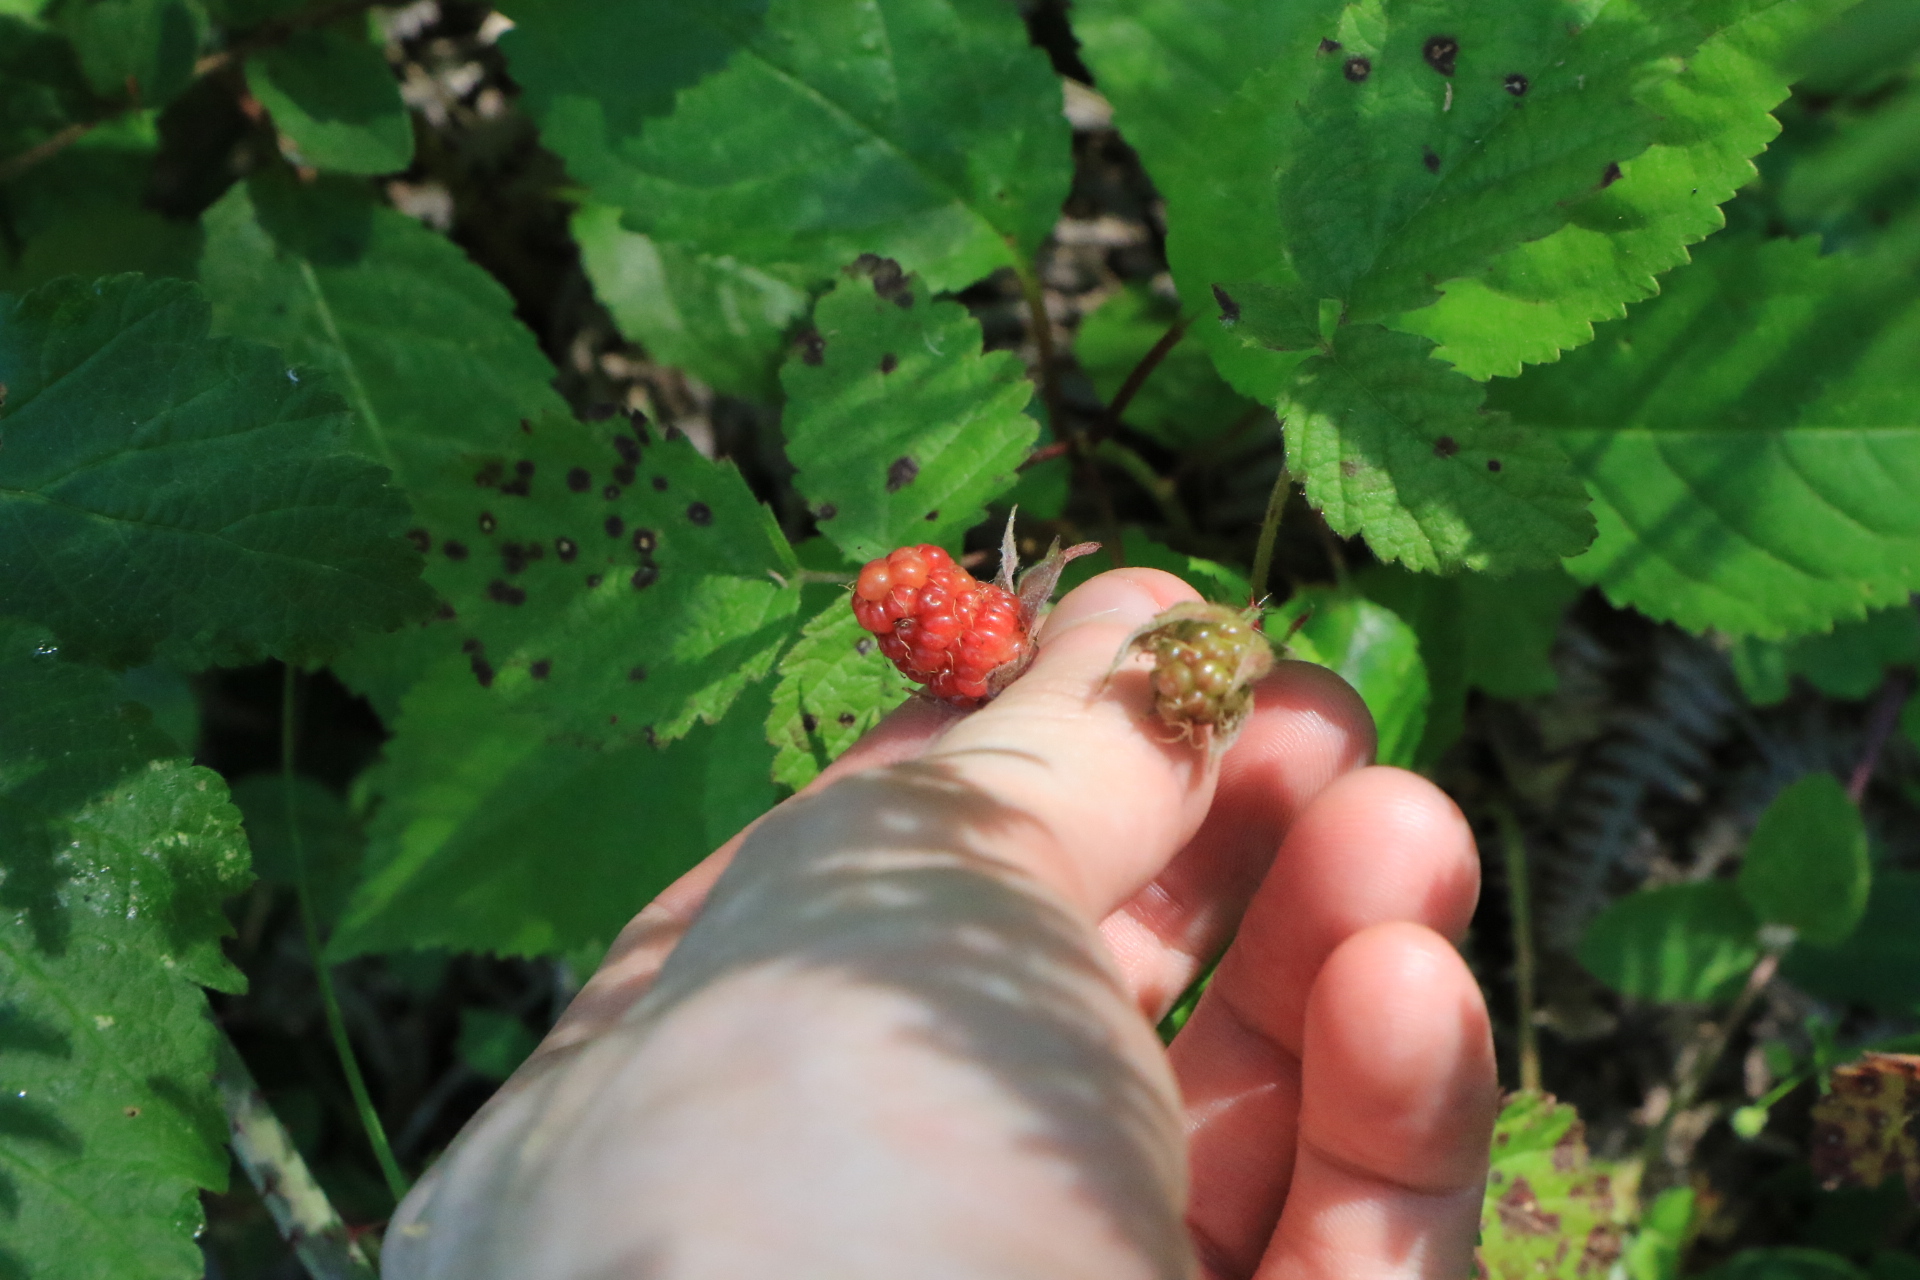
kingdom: Plantae
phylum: Tracheophyta
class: Magnoliopsida
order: Rosales
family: Rosaceae
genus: Rubus
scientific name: Rubus ursinus
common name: Pacific blackberry
